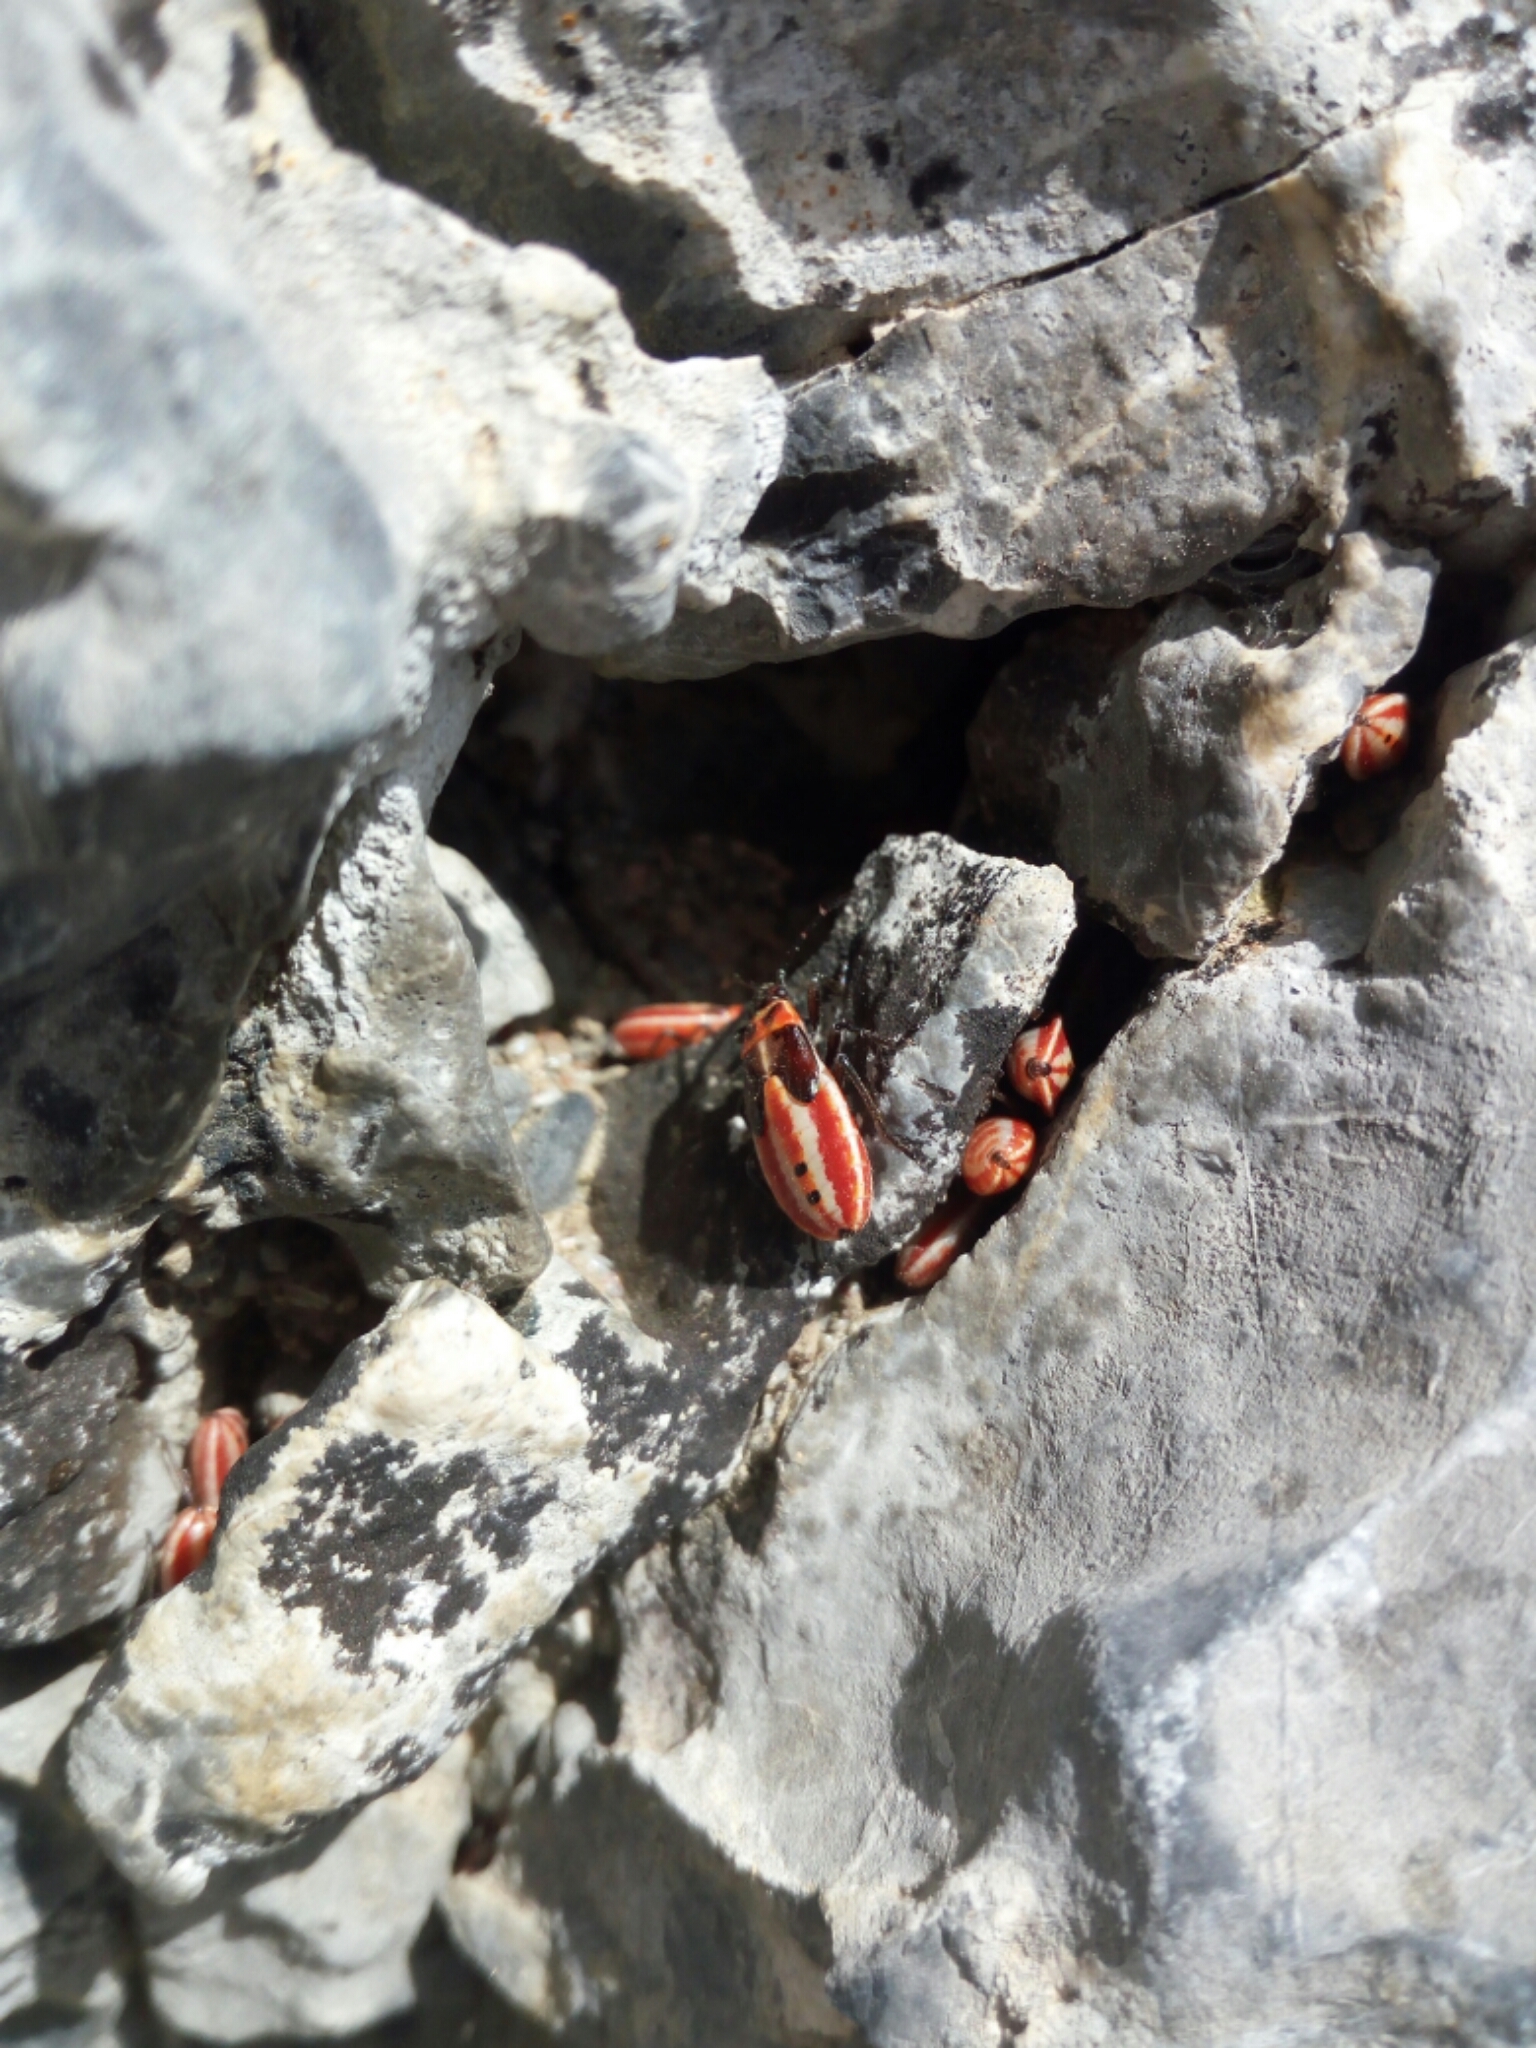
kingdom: Animalia
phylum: Arthropoda
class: Insecta
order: Hemiptera
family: Lygaeidae
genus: Lygaeus
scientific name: Lygaeus creticus
